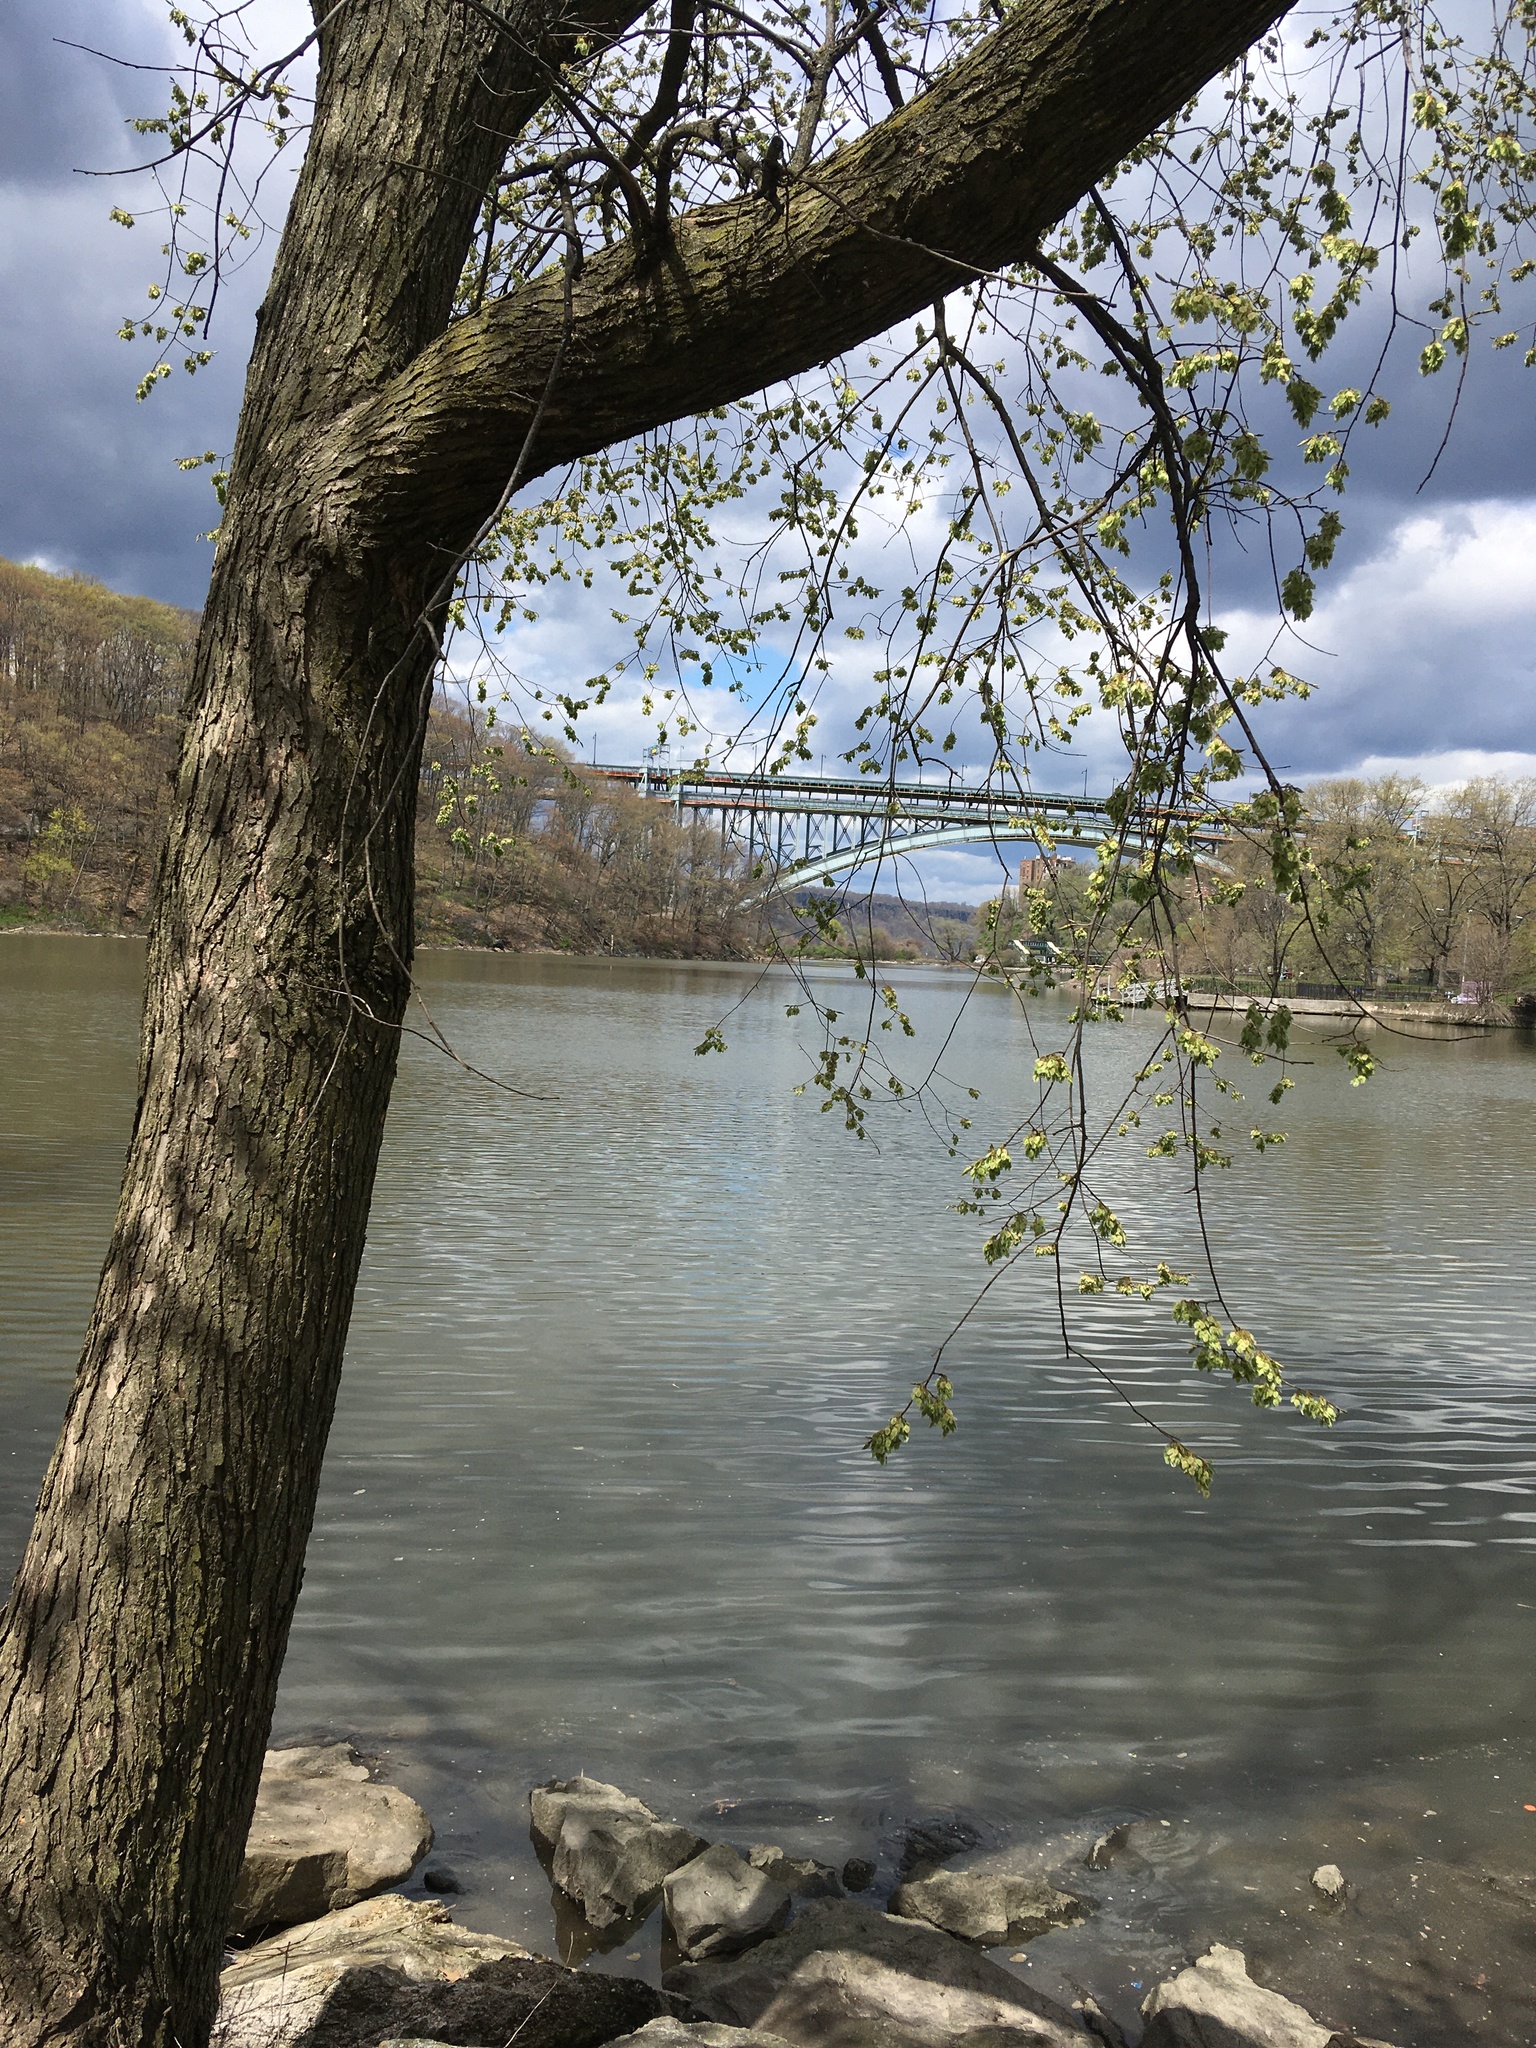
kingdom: Plantae
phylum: Tracheophyta
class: Magnoliopsida
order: Rosales
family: Ulmaceae
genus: Ulmus
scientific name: Ulmus americana
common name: American elm
